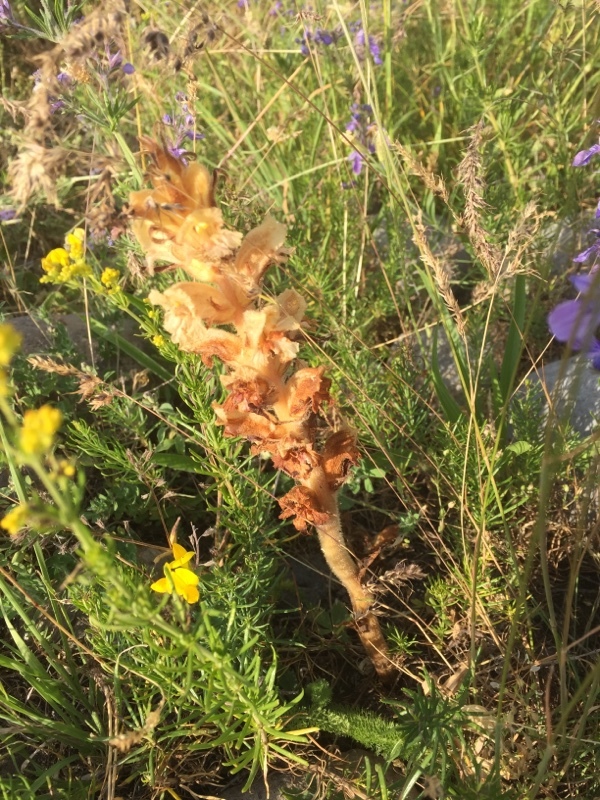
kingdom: Plantae
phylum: Tracheophyta
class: Magnoliopsida
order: Lamiales
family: Orobanchaceae
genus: Orobanche
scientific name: Orobanche caryophyllacea
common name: Bedstraw broomrape
